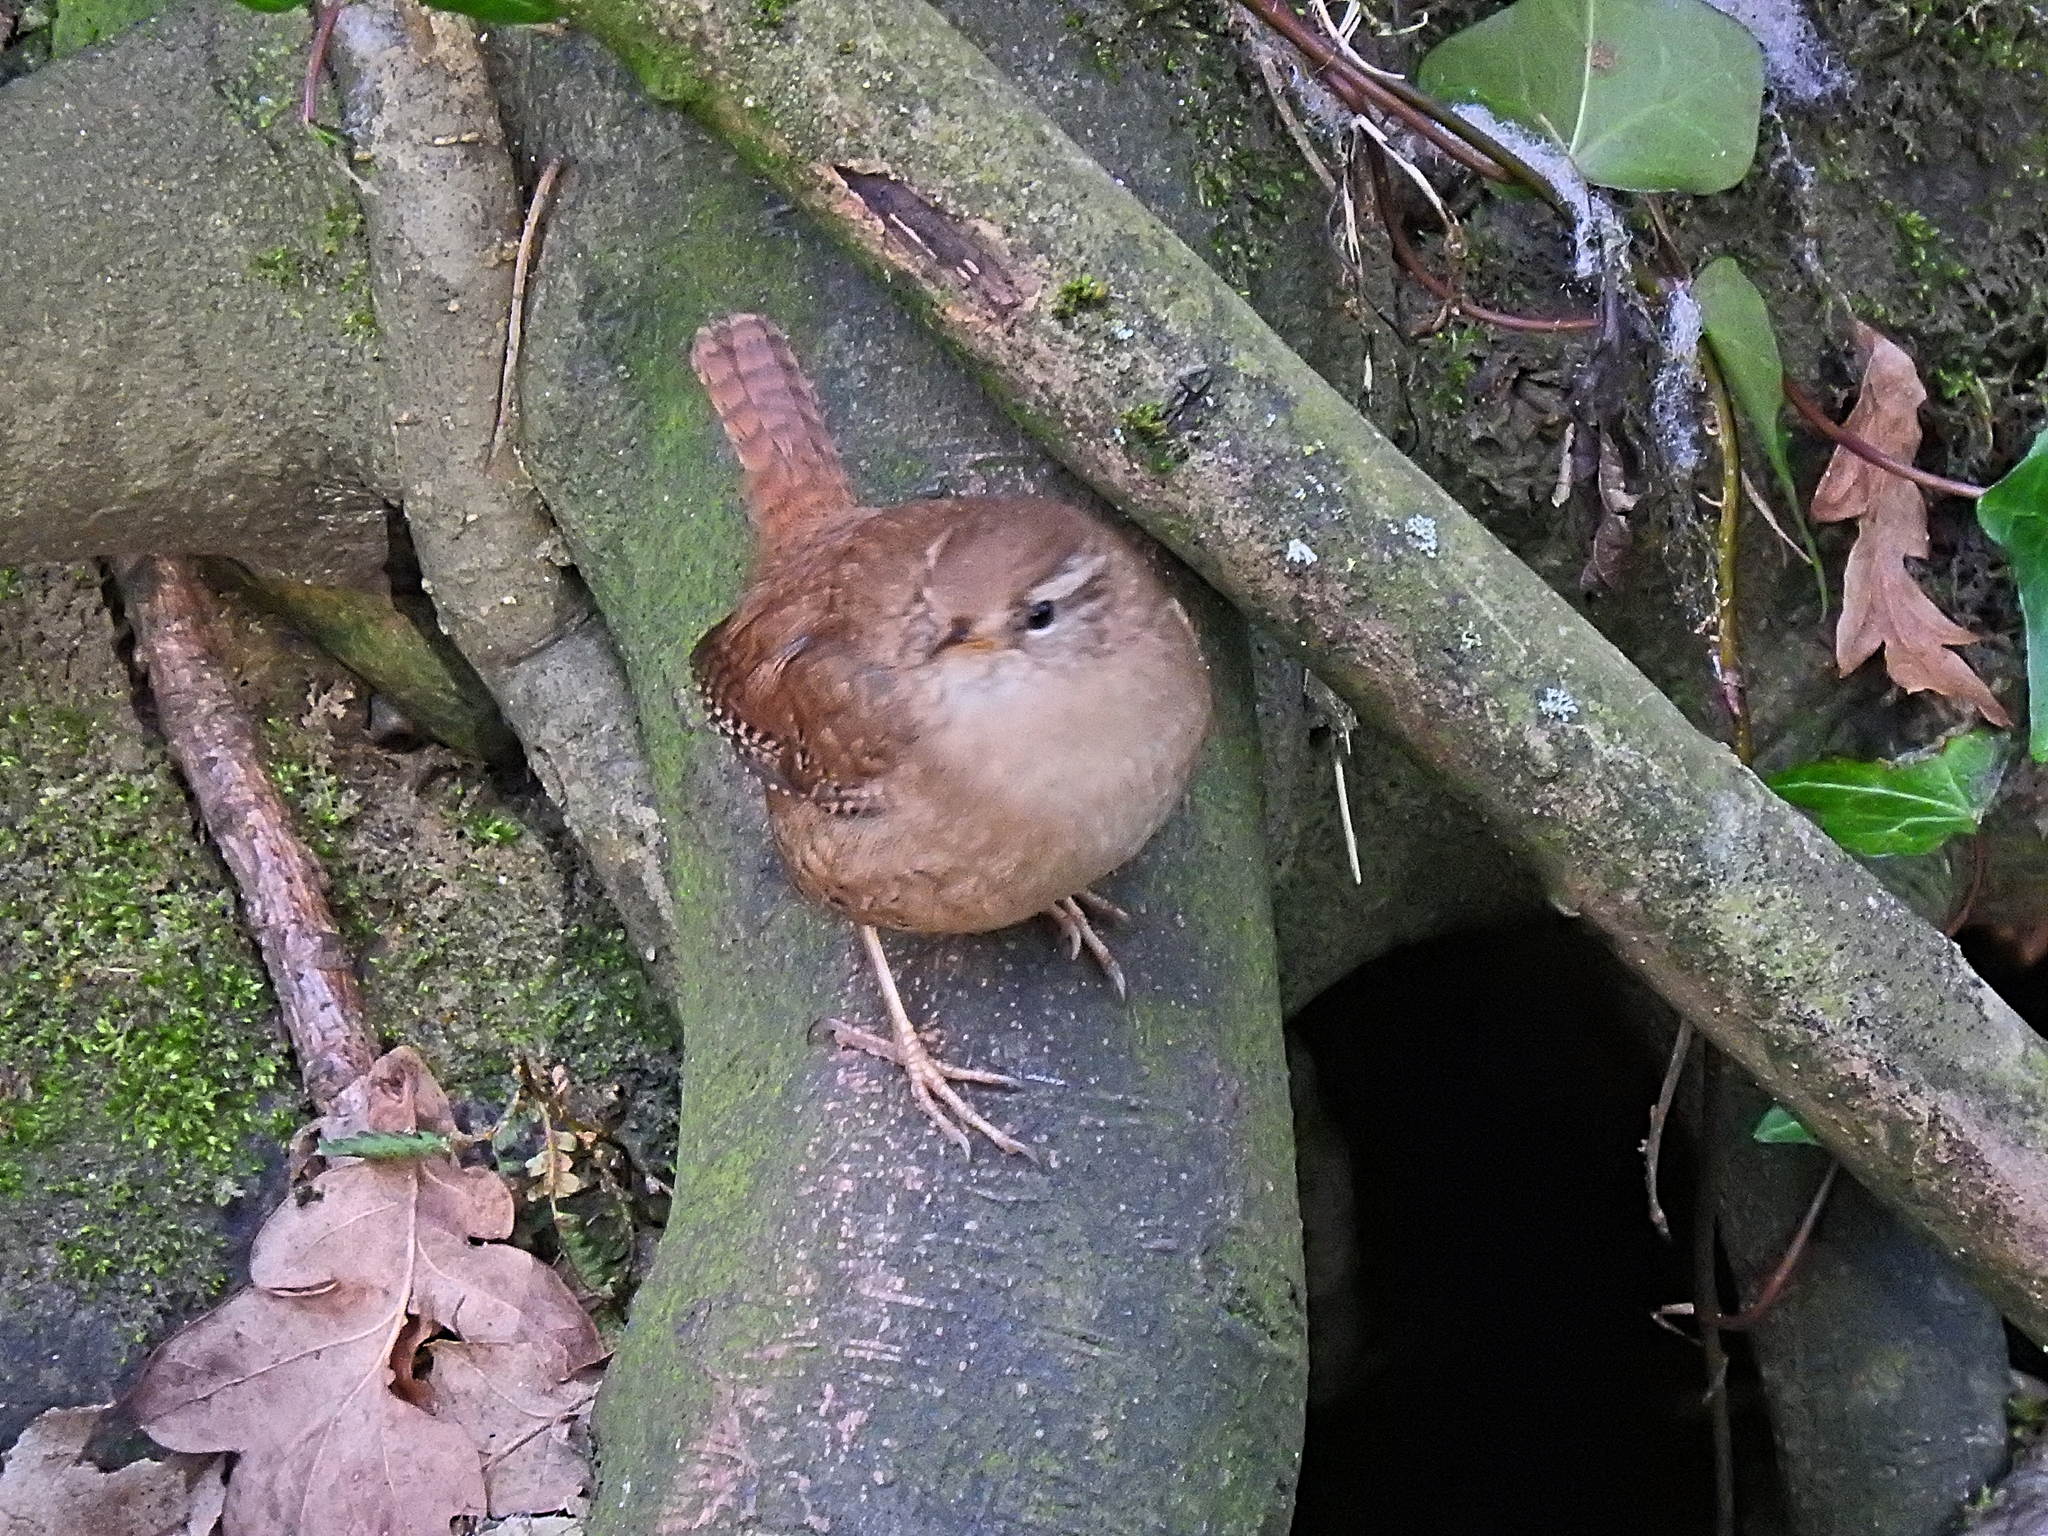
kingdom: Animalia
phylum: Chordata
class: Aves
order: Passeriformes
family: Troglodytidae
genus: Troglodytes
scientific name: Troglodytes troglodytes
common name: Eurasian wren
